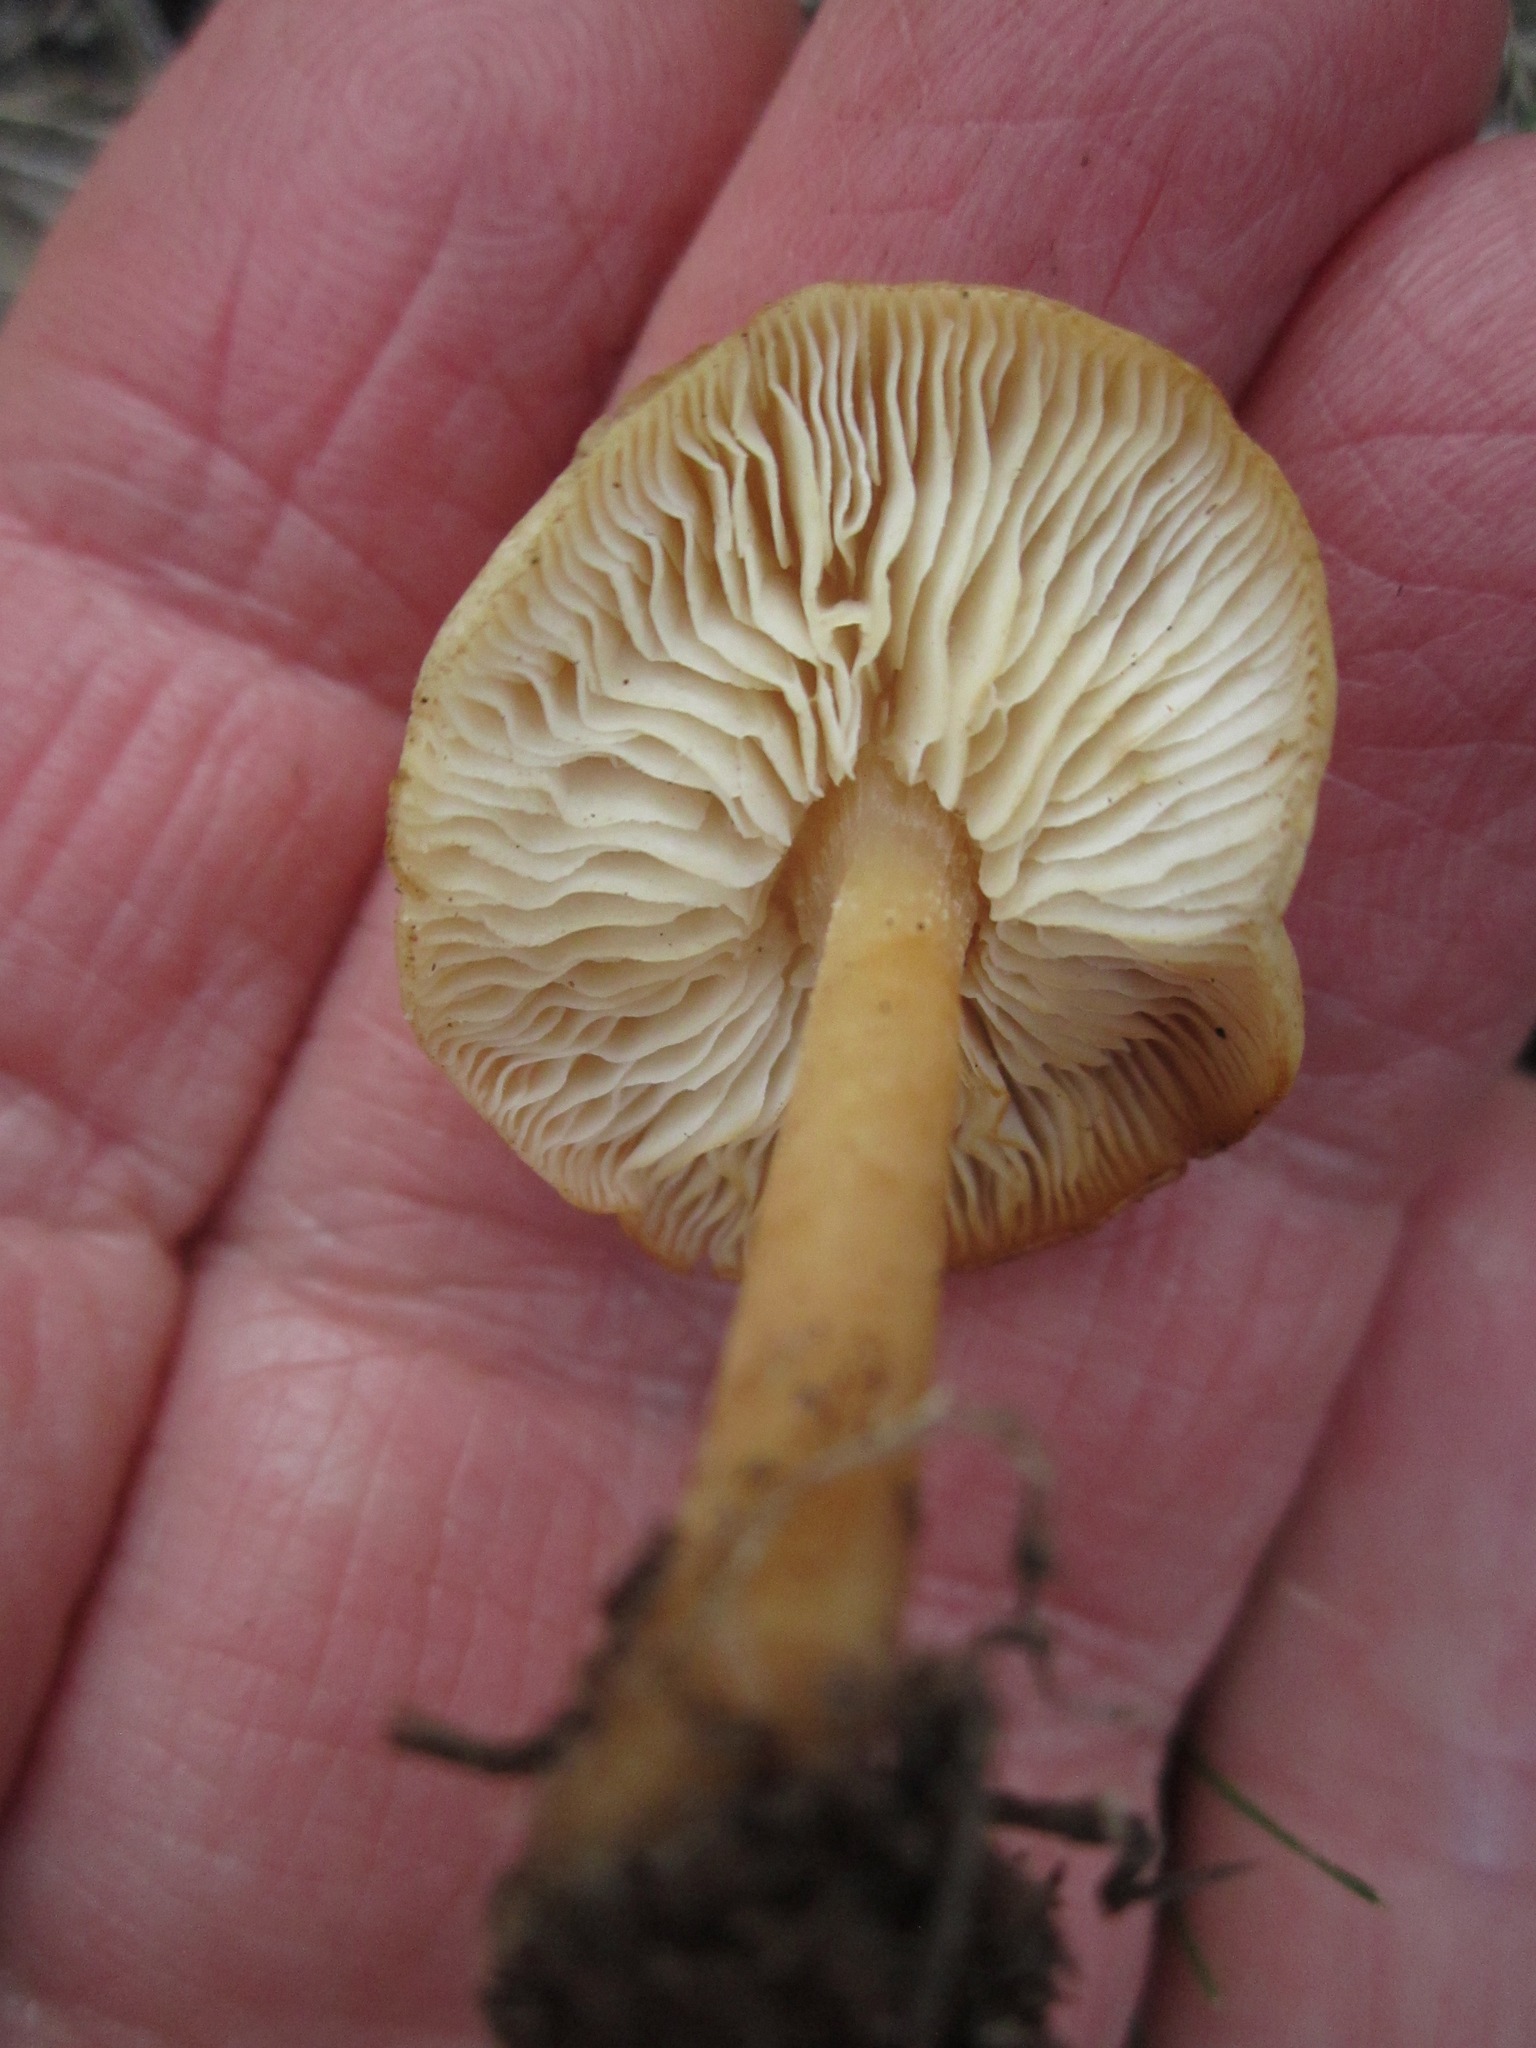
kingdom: Fungi
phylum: Basidiomycota
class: Agaricomycetes
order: Agaricales
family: Omphalotaceae
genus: Gymnopus
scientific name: Gymnopus dryophilus
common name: Penny top
